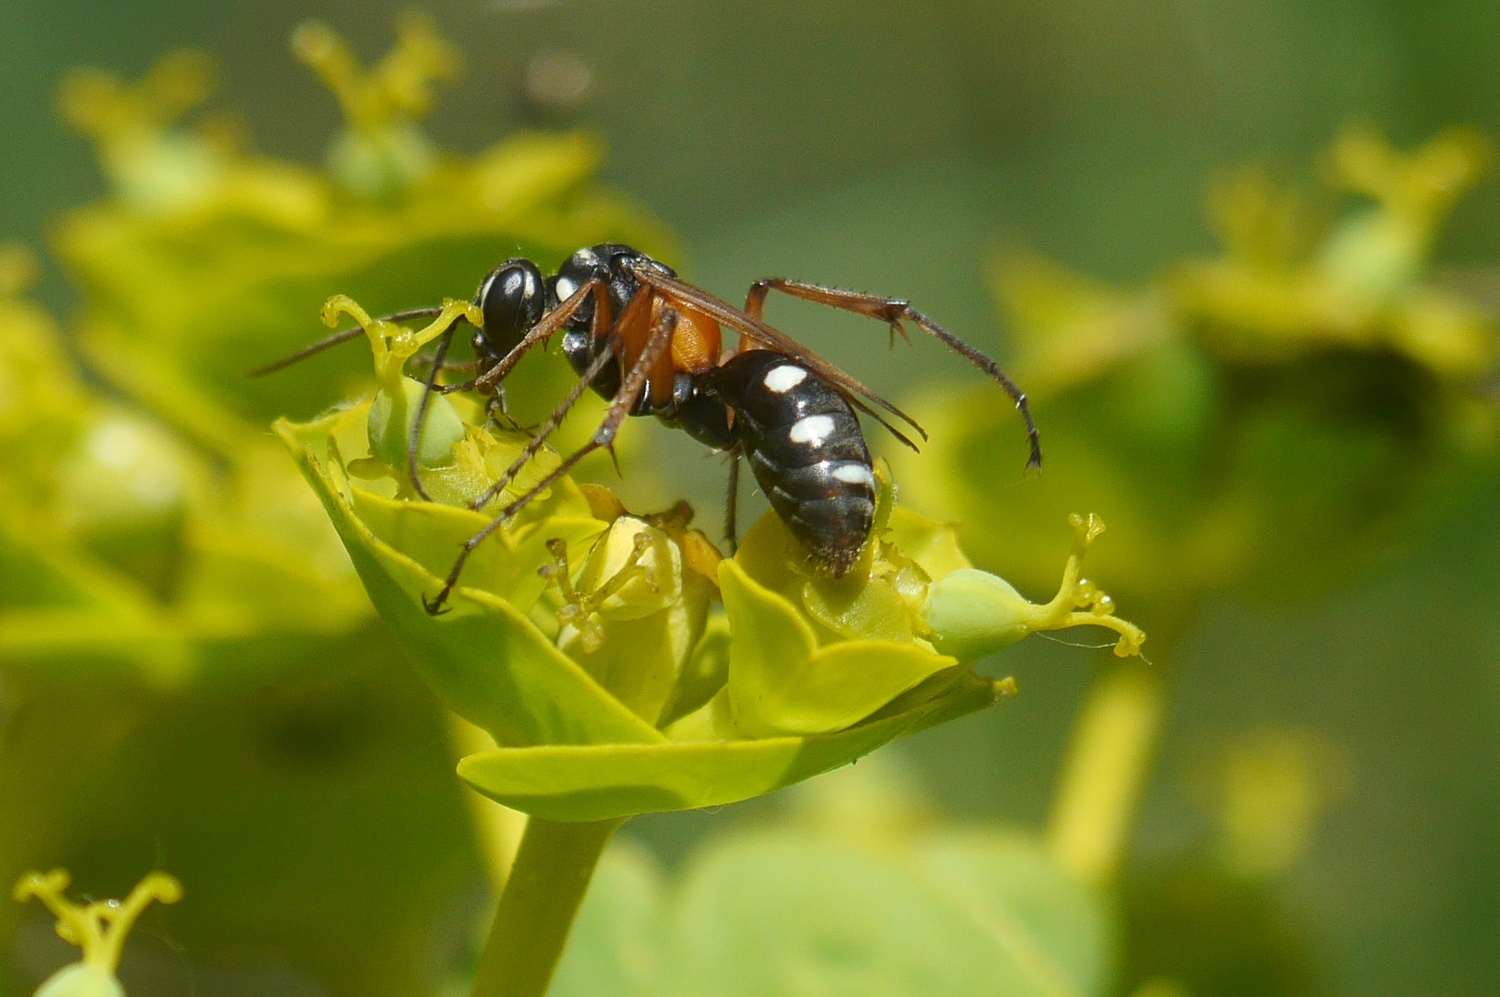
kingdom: Animalia
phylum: Arthropoda
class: Insecta
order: Hymenoptera
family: Pompilidae
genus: Cryptocheilus
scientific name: Cryptocheilus fabricii
